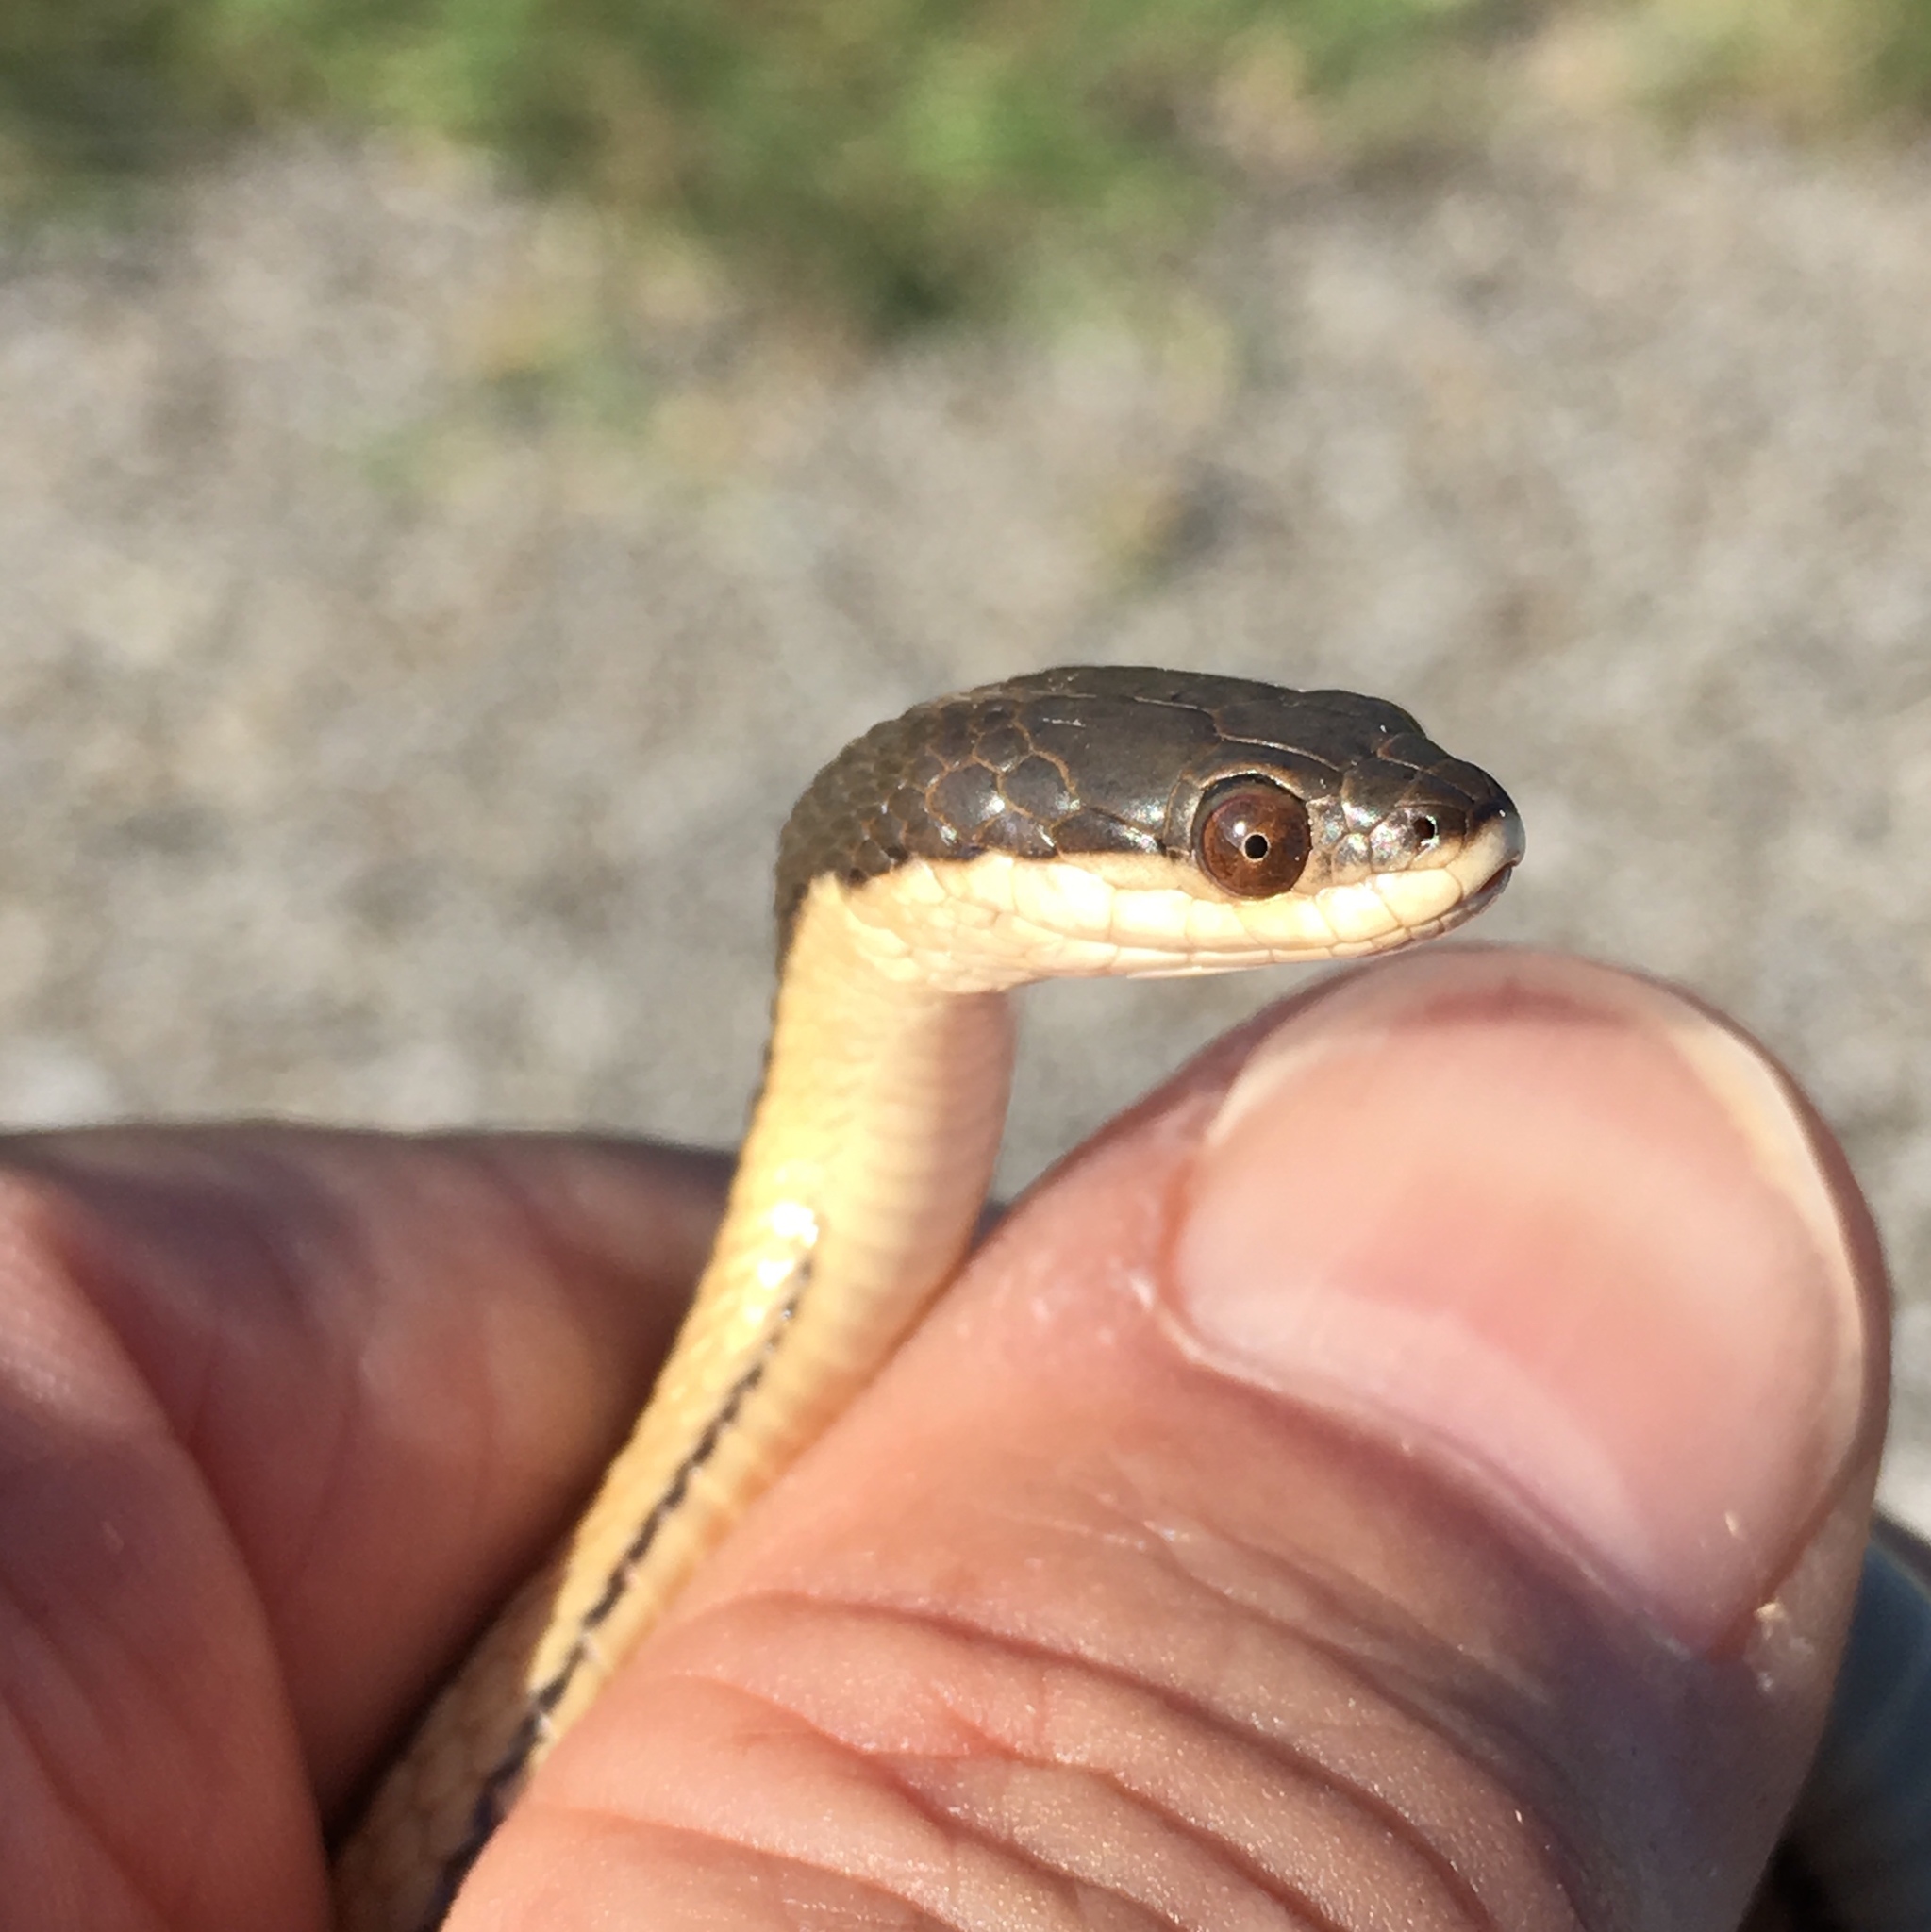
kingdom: Animalia
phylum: Chordata
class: Squamata
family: Colubridae
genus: Regina
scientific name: Regina grahamii
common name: Graham's crayfish snake
